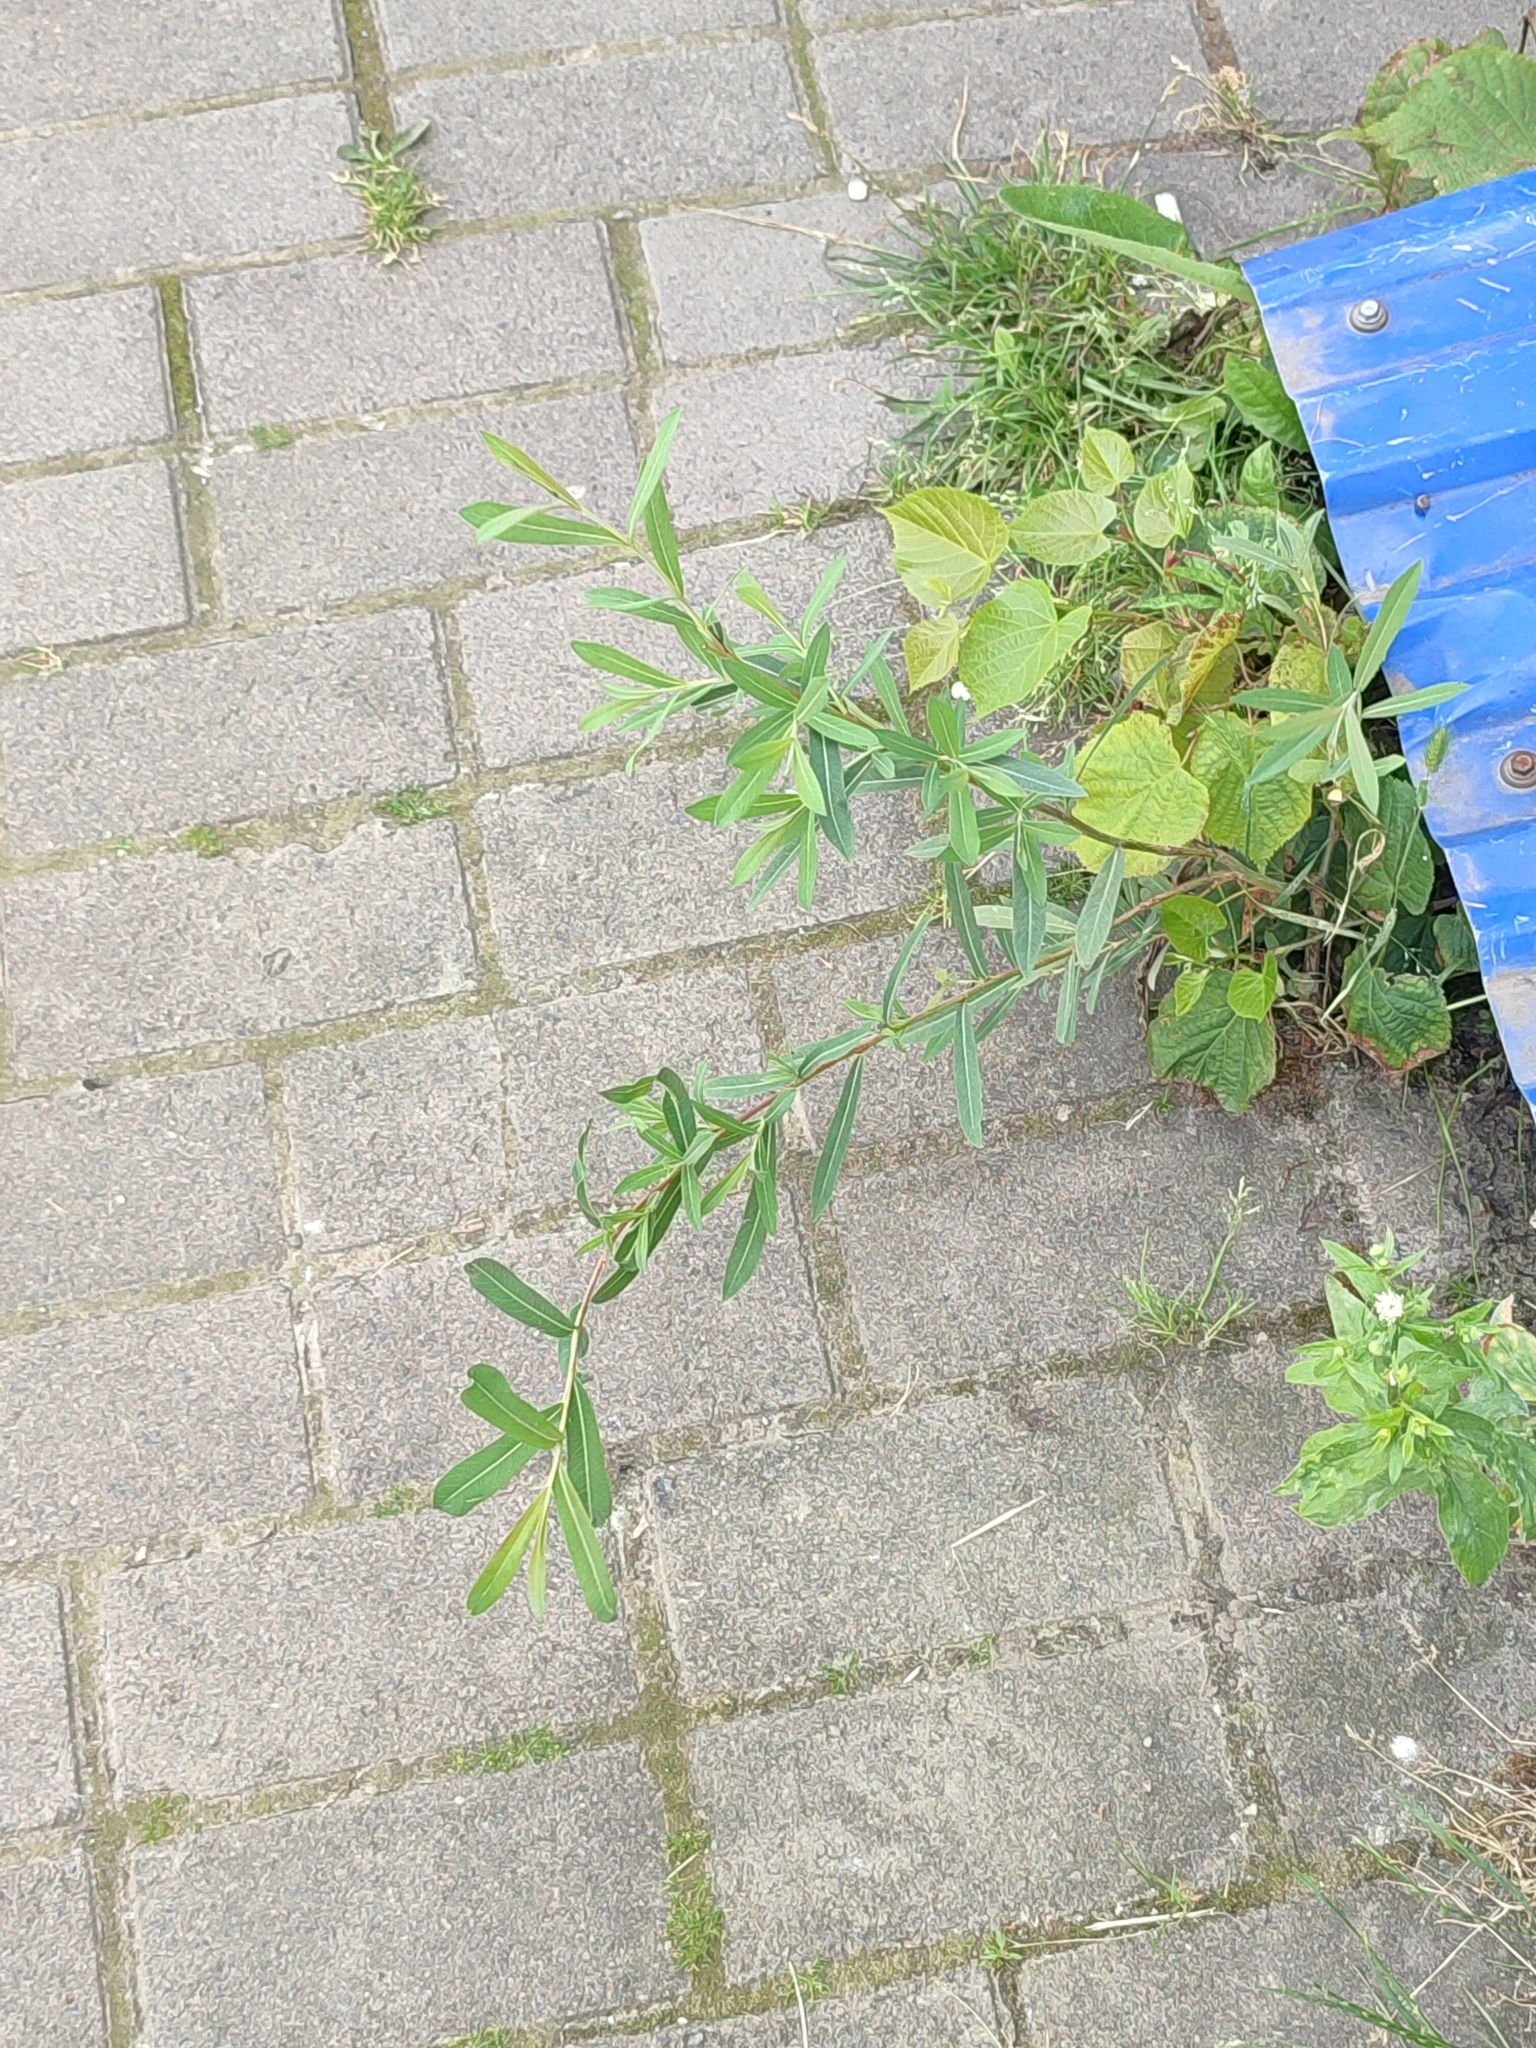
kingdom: Plantae
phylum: Tracheophyta
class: Magnoliopsida
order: Malpighiales
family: Salicaceae
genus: Salix
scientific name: Salix purpurea
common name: Purple willow
